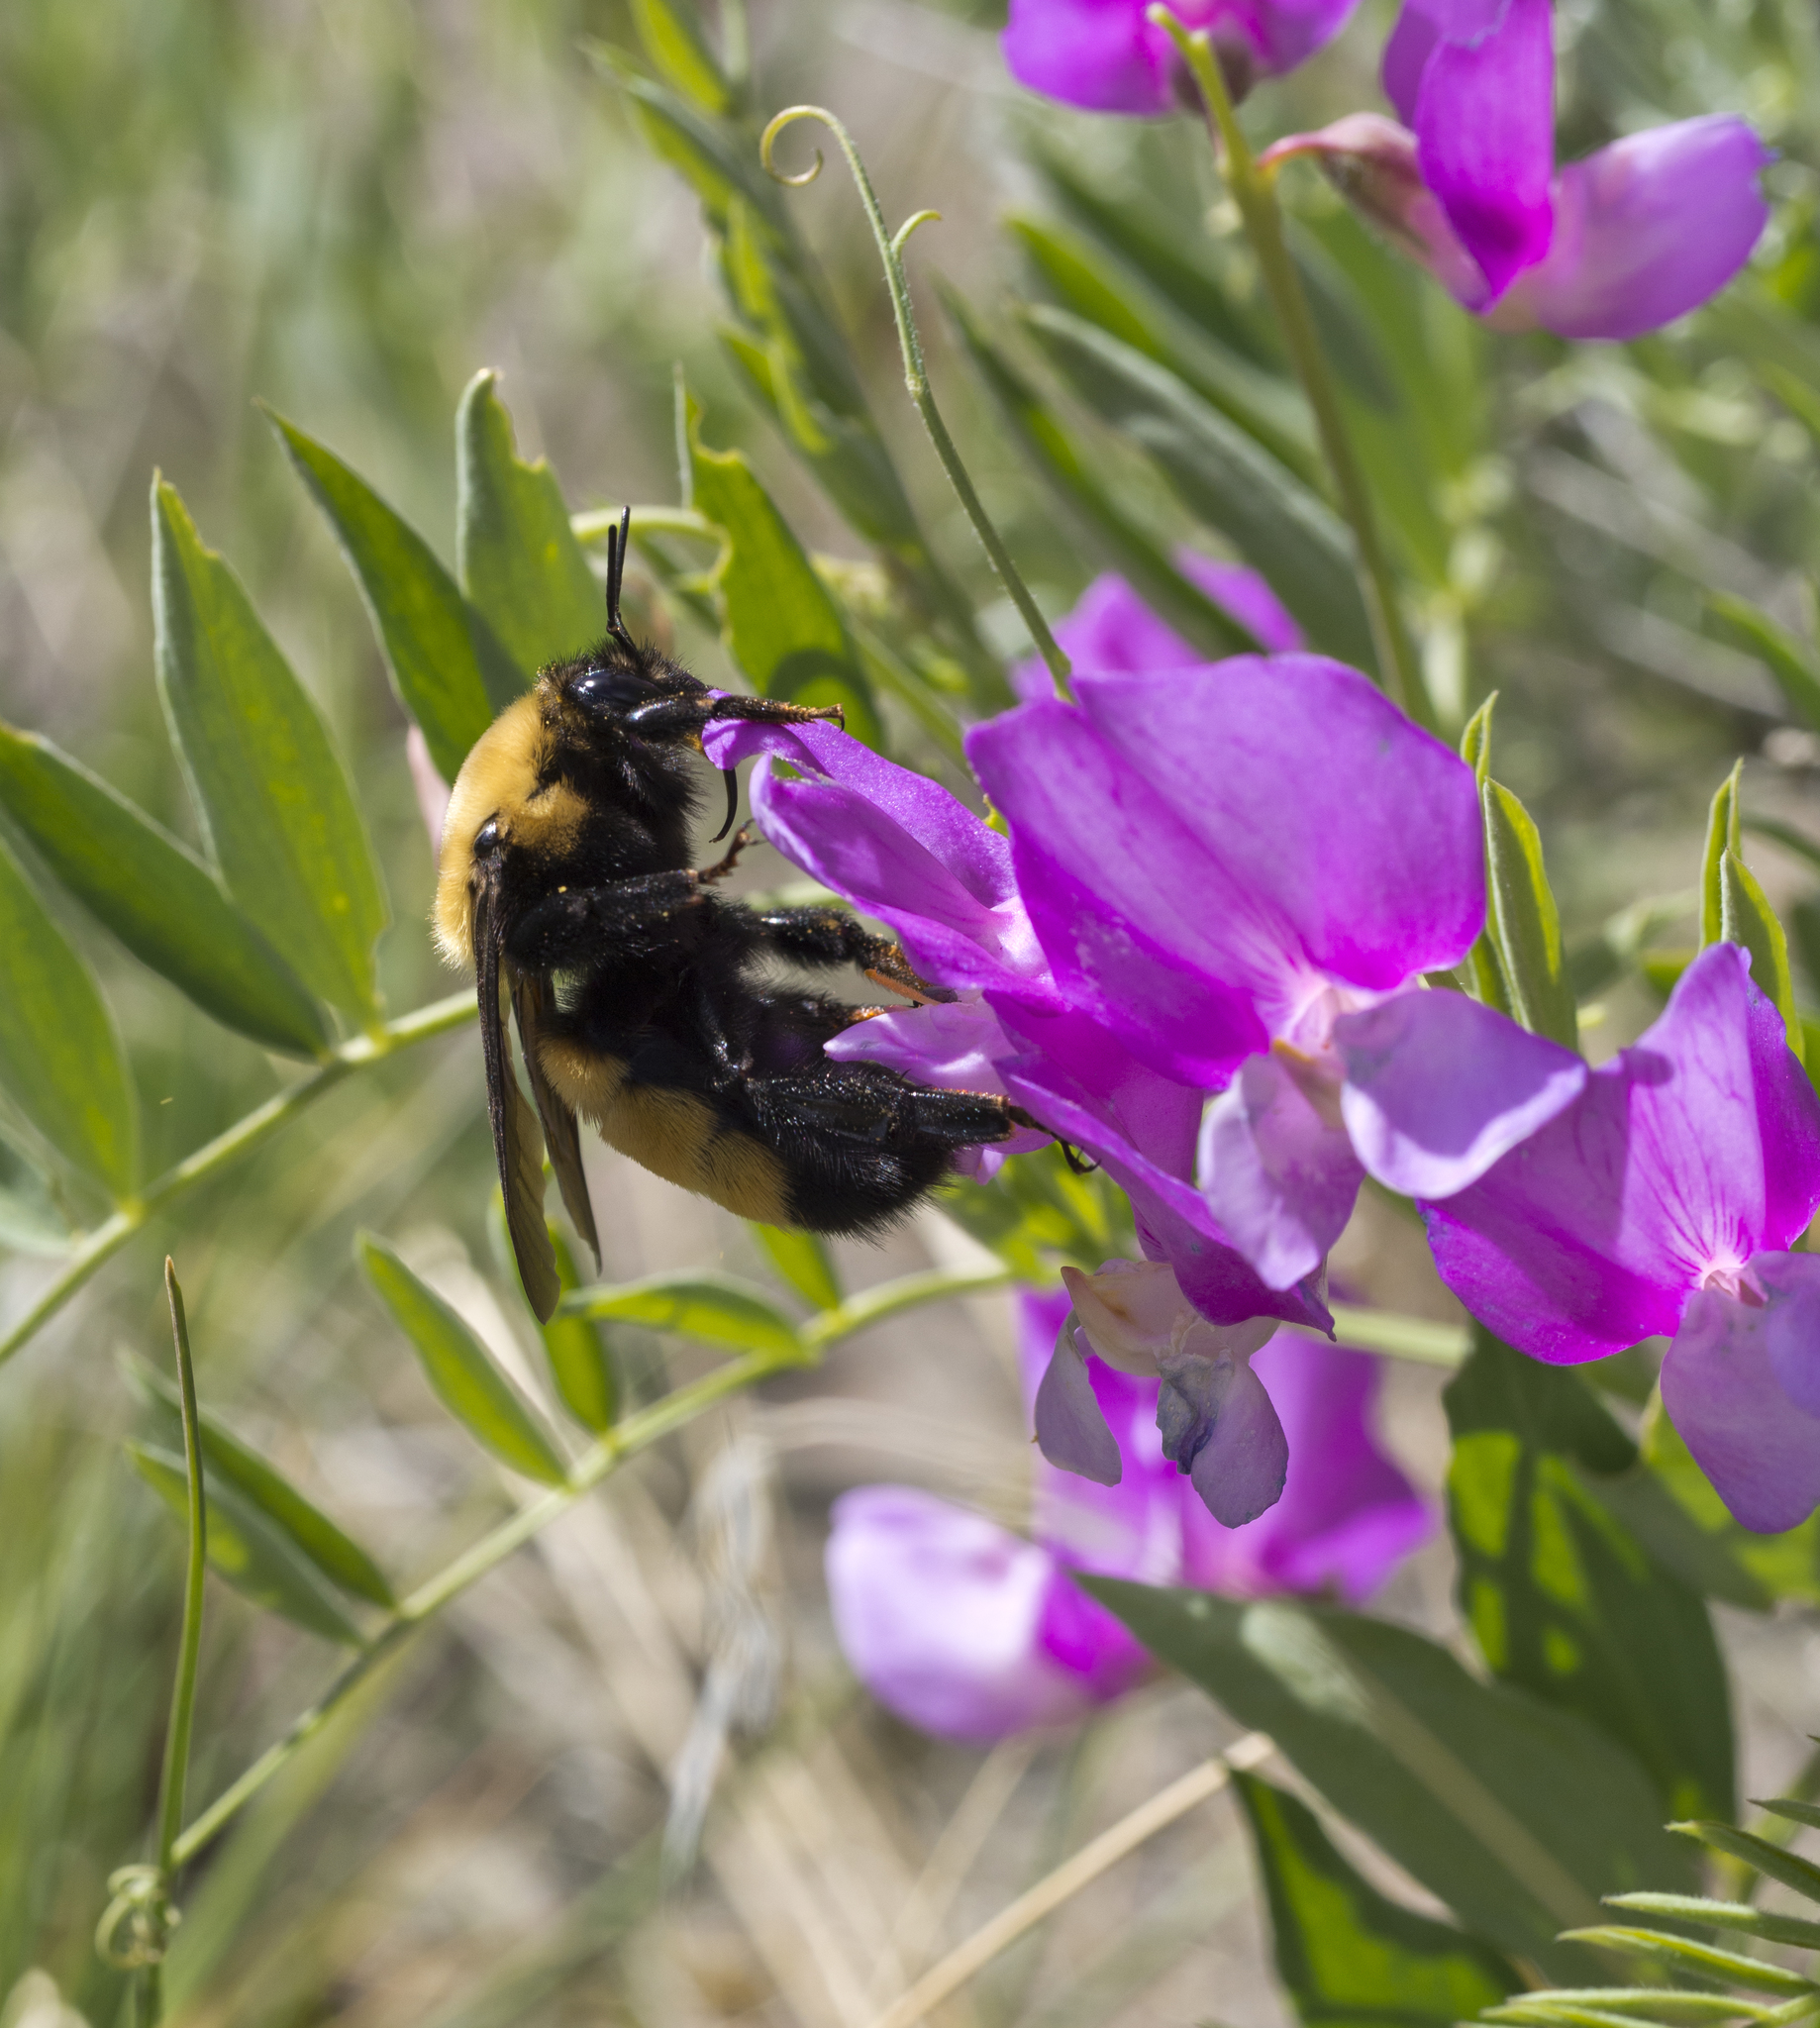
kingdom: Animalia
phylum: Arthropoda
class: Insecta
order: Hymenoptera
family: Apidae
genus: Bombus
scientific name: Bombus nevadensis
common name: Nevada bumble bee
